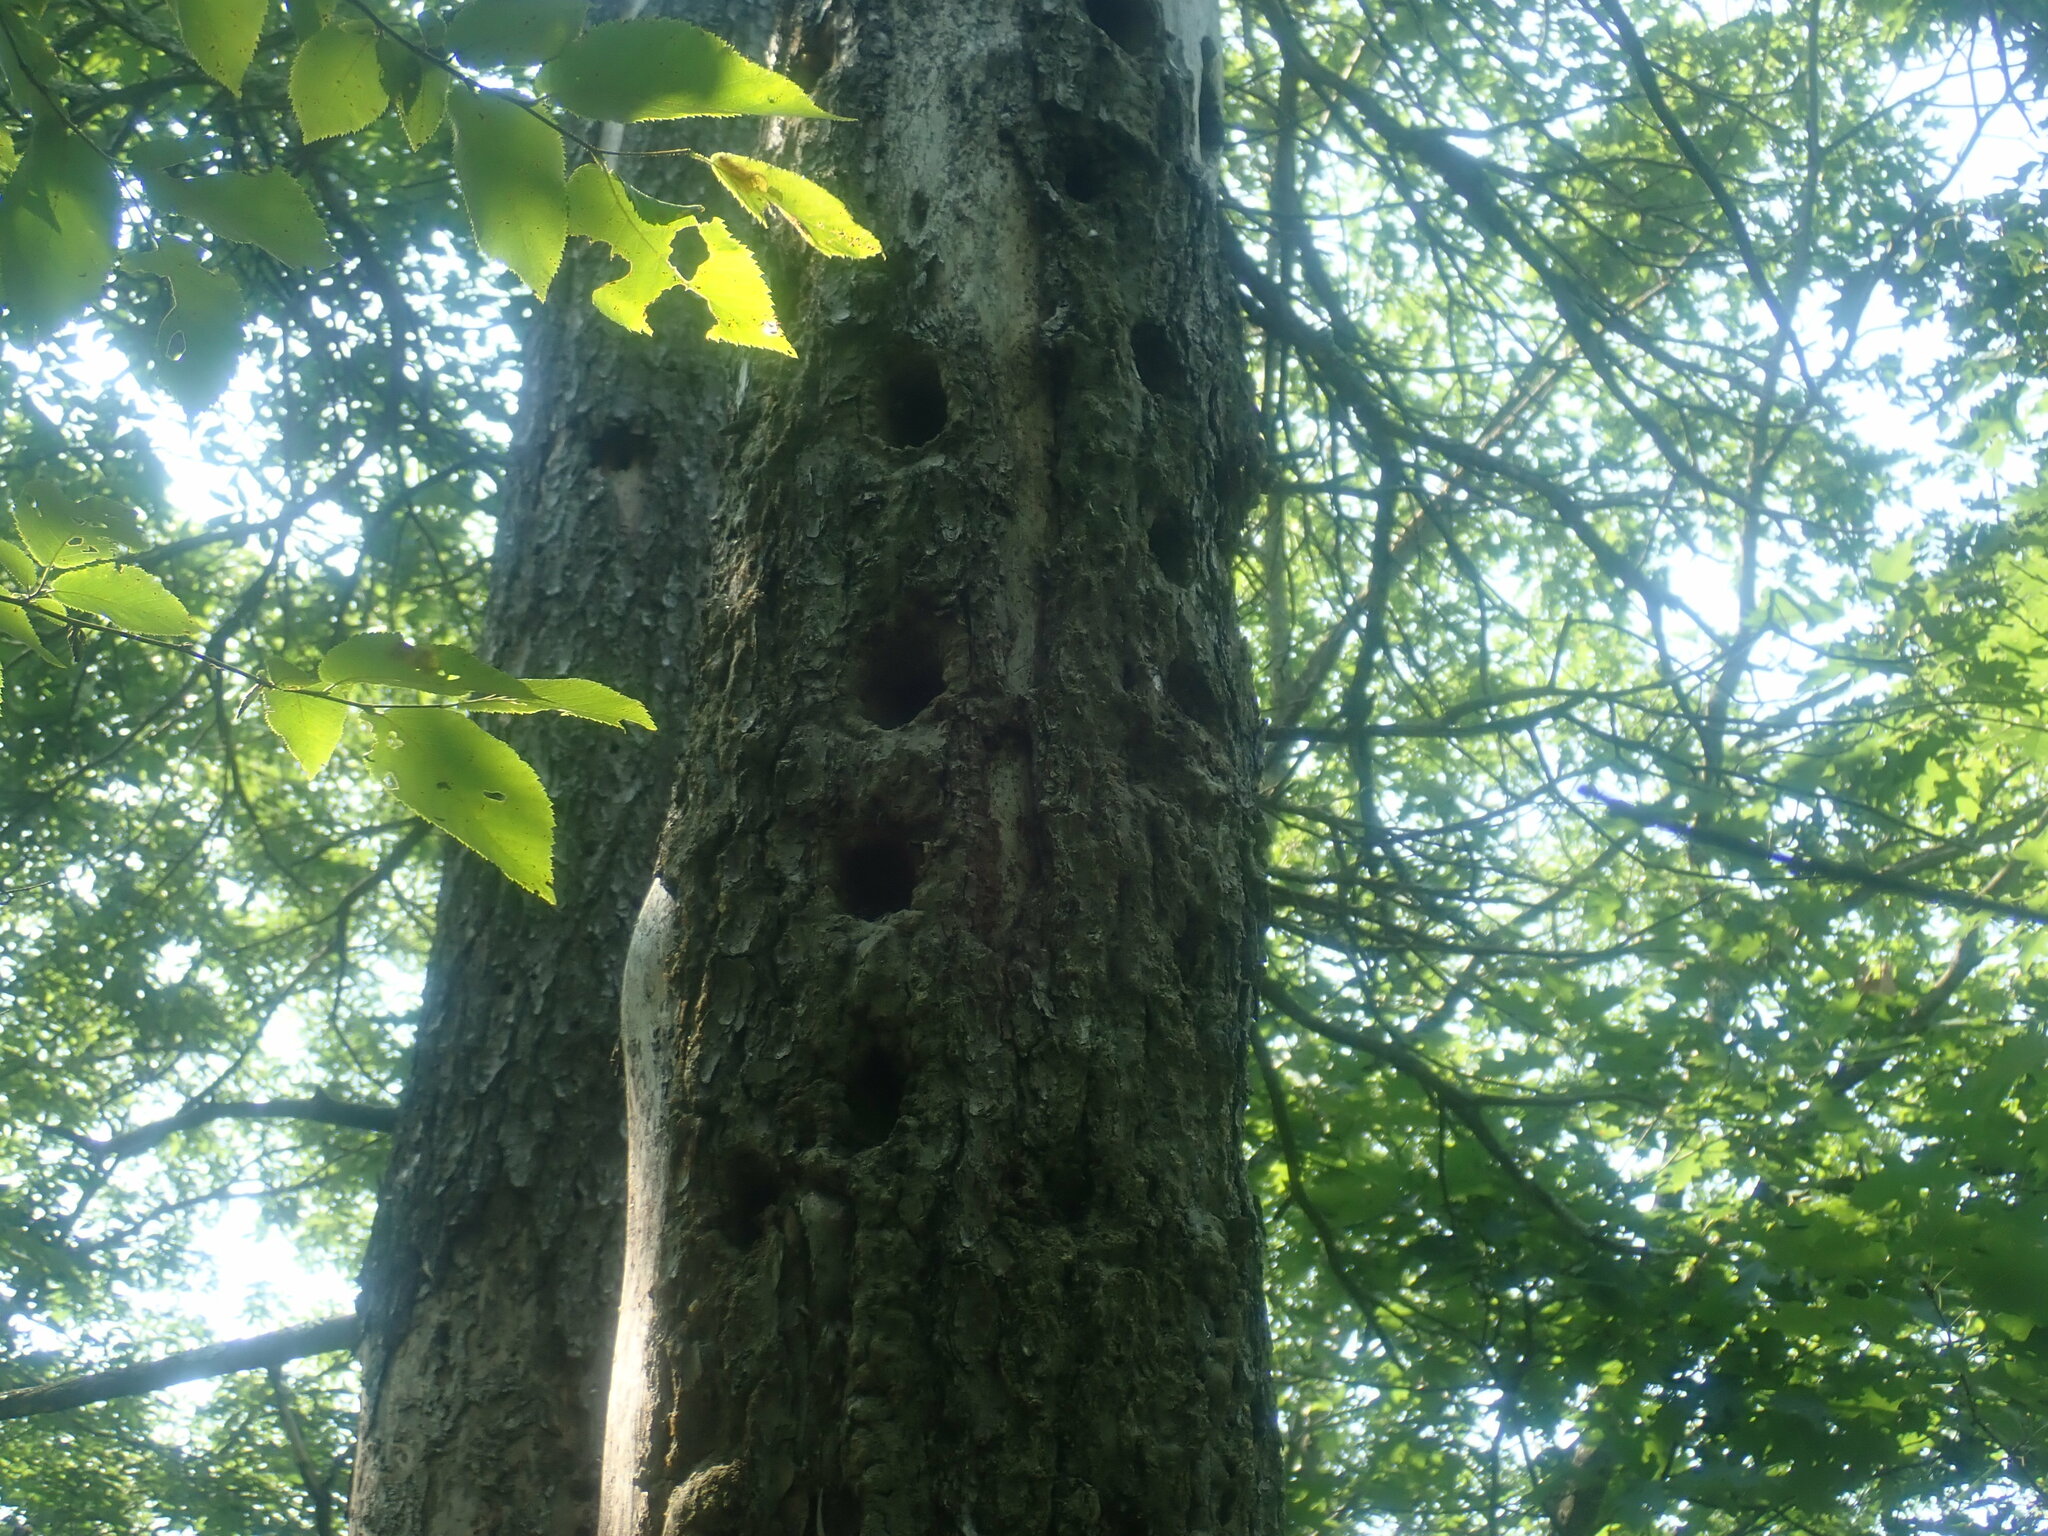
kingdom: Animalia
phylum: Chordata
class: Aves
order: Piciformes
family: Picidae
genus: Dryocopus
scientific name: Dryocopus pileatus
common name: Pileated woodpecker
